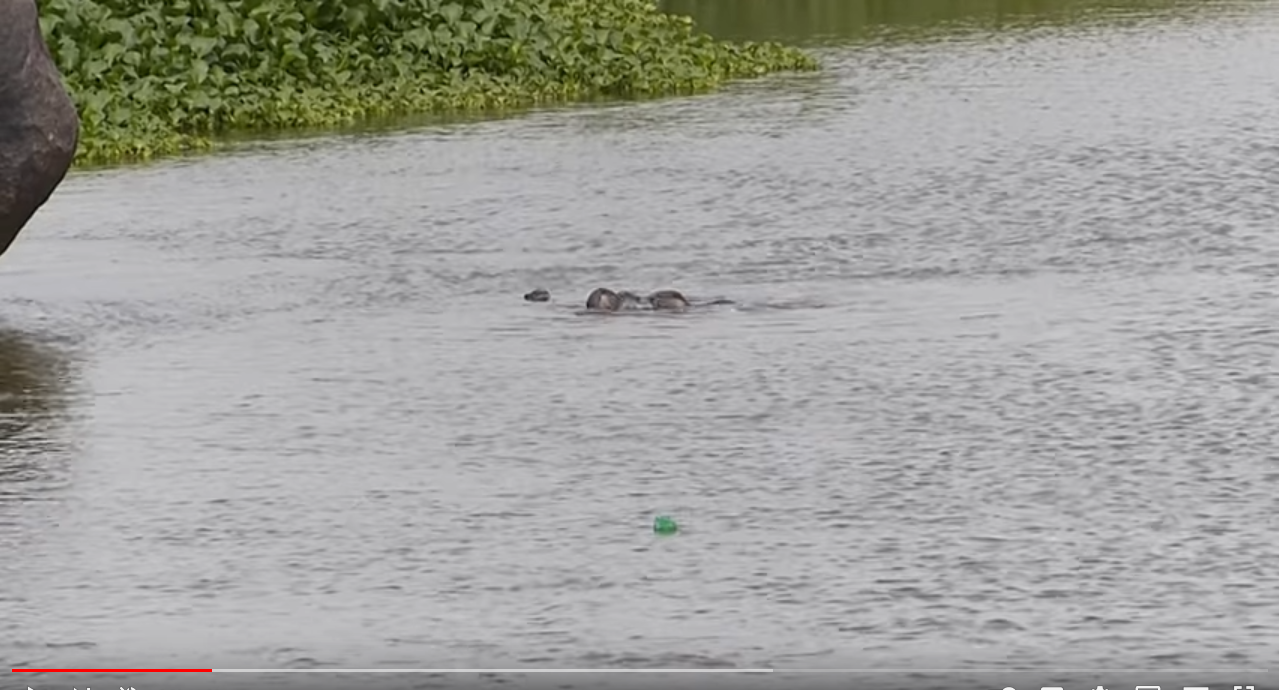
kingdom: Animalia
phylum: Chordata
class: Mammalia
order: Carnivora
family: Mustelidae
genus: Lutrogale
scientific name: Lutrogale perspicillata
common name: Smooth-coated otter
